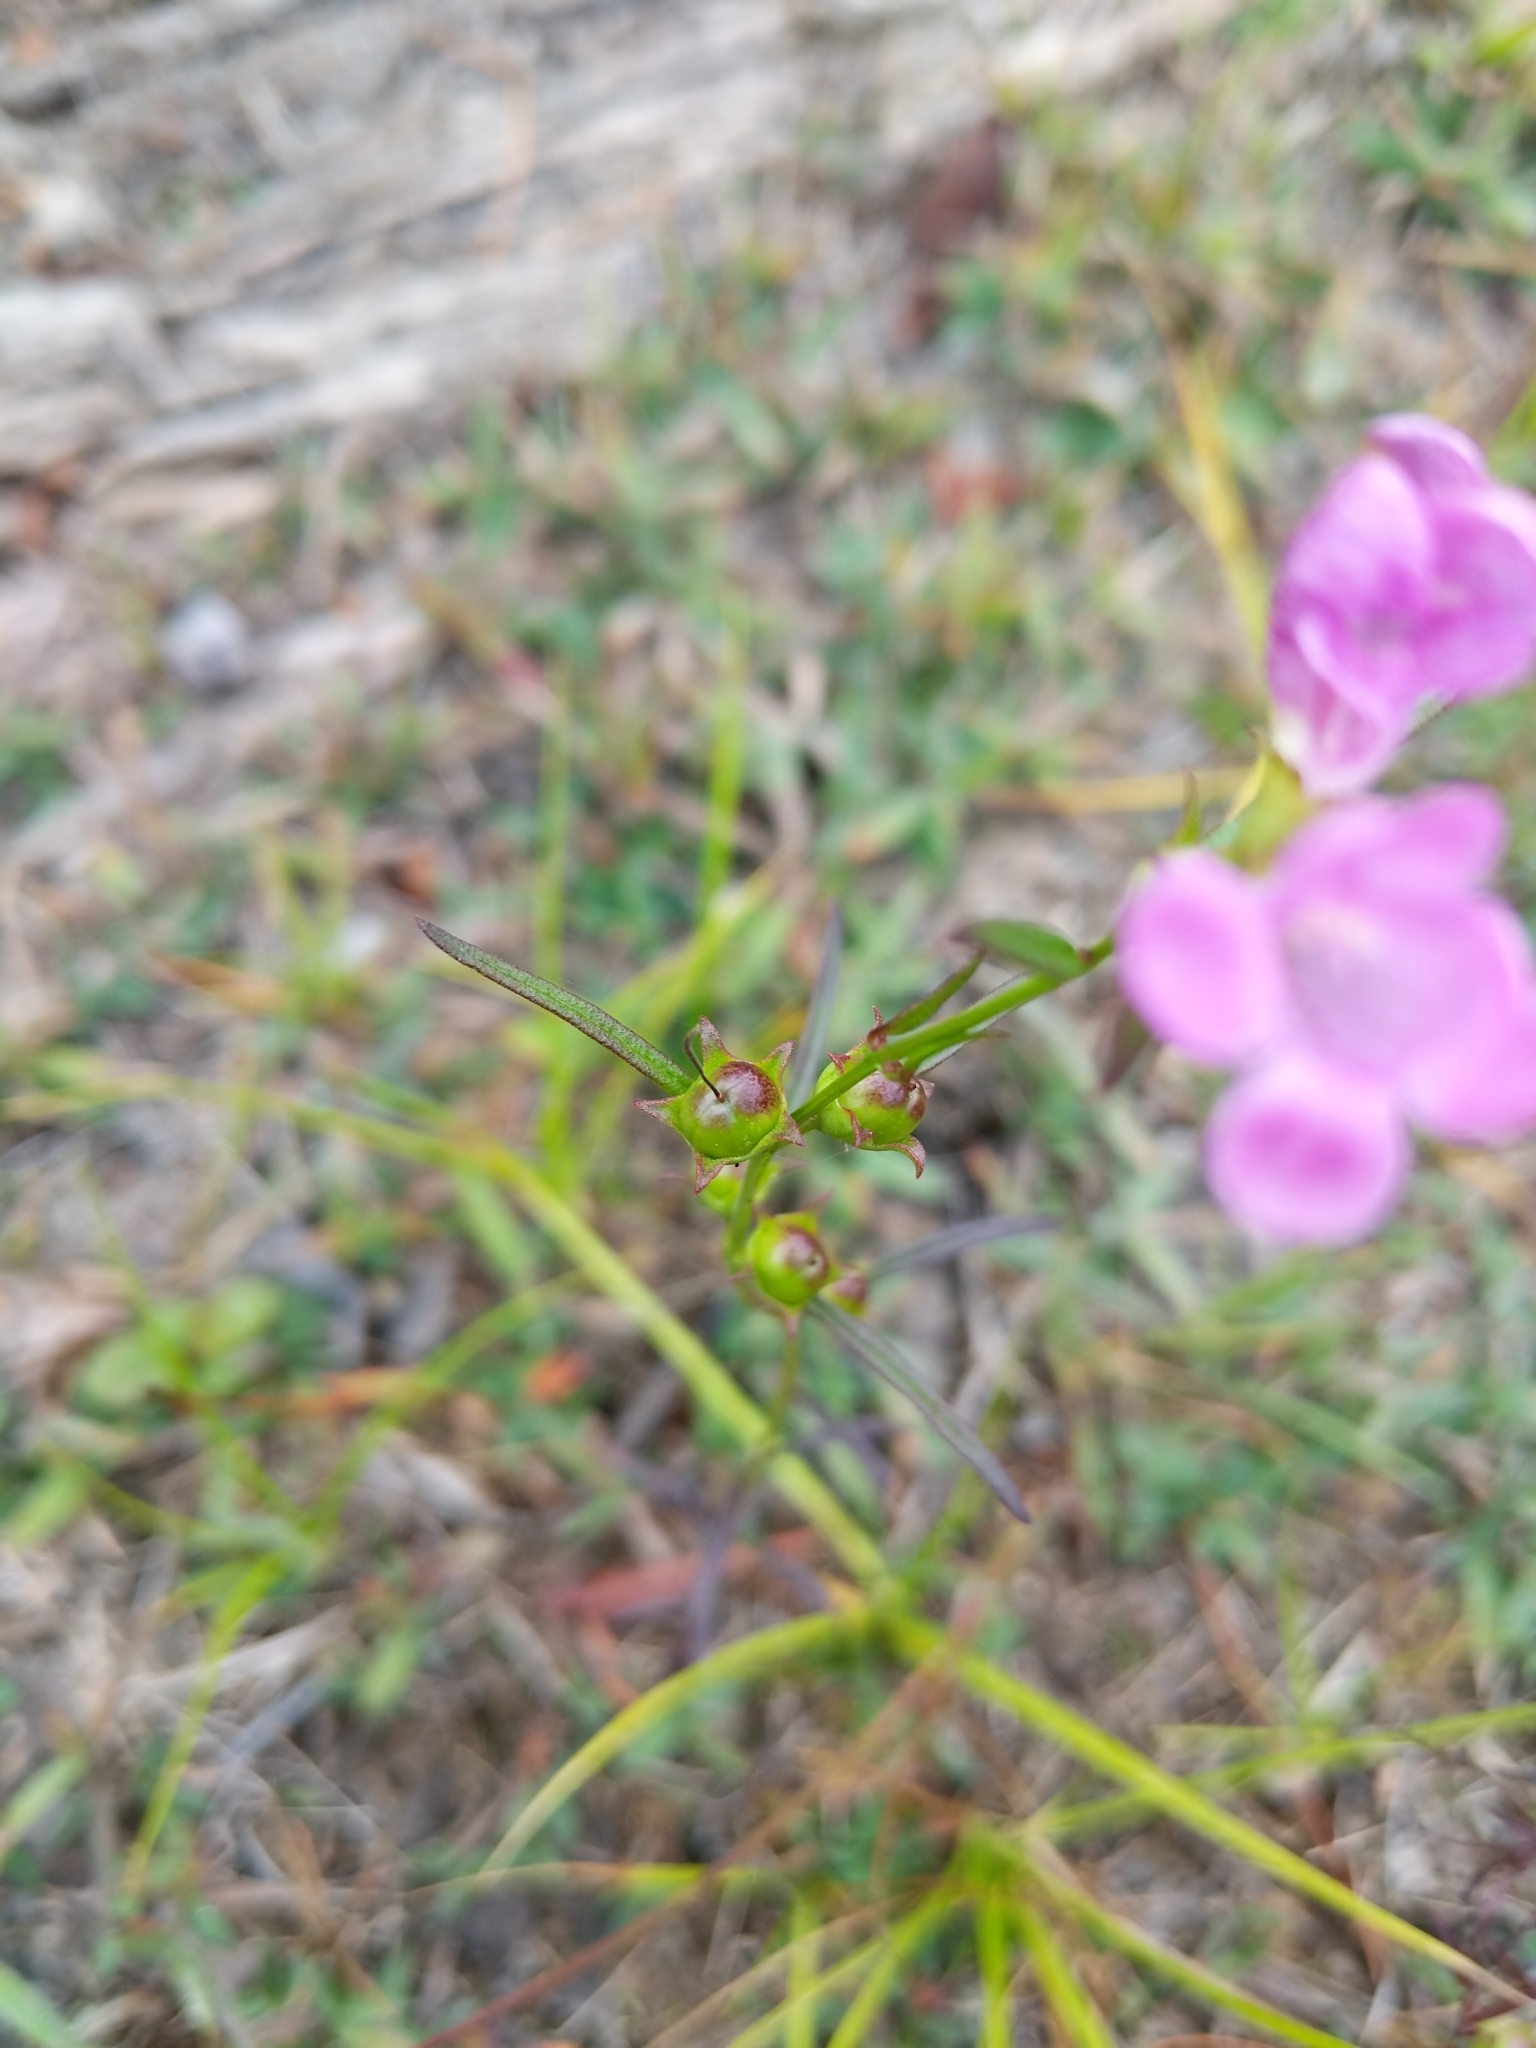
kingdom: Plantae
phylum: Tracheophyta
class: Magnoliopsida
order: Lamiales
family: Orobanchaceae
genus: Agalinis
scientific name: Agalinis purpurea
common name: Purple false foxglove
